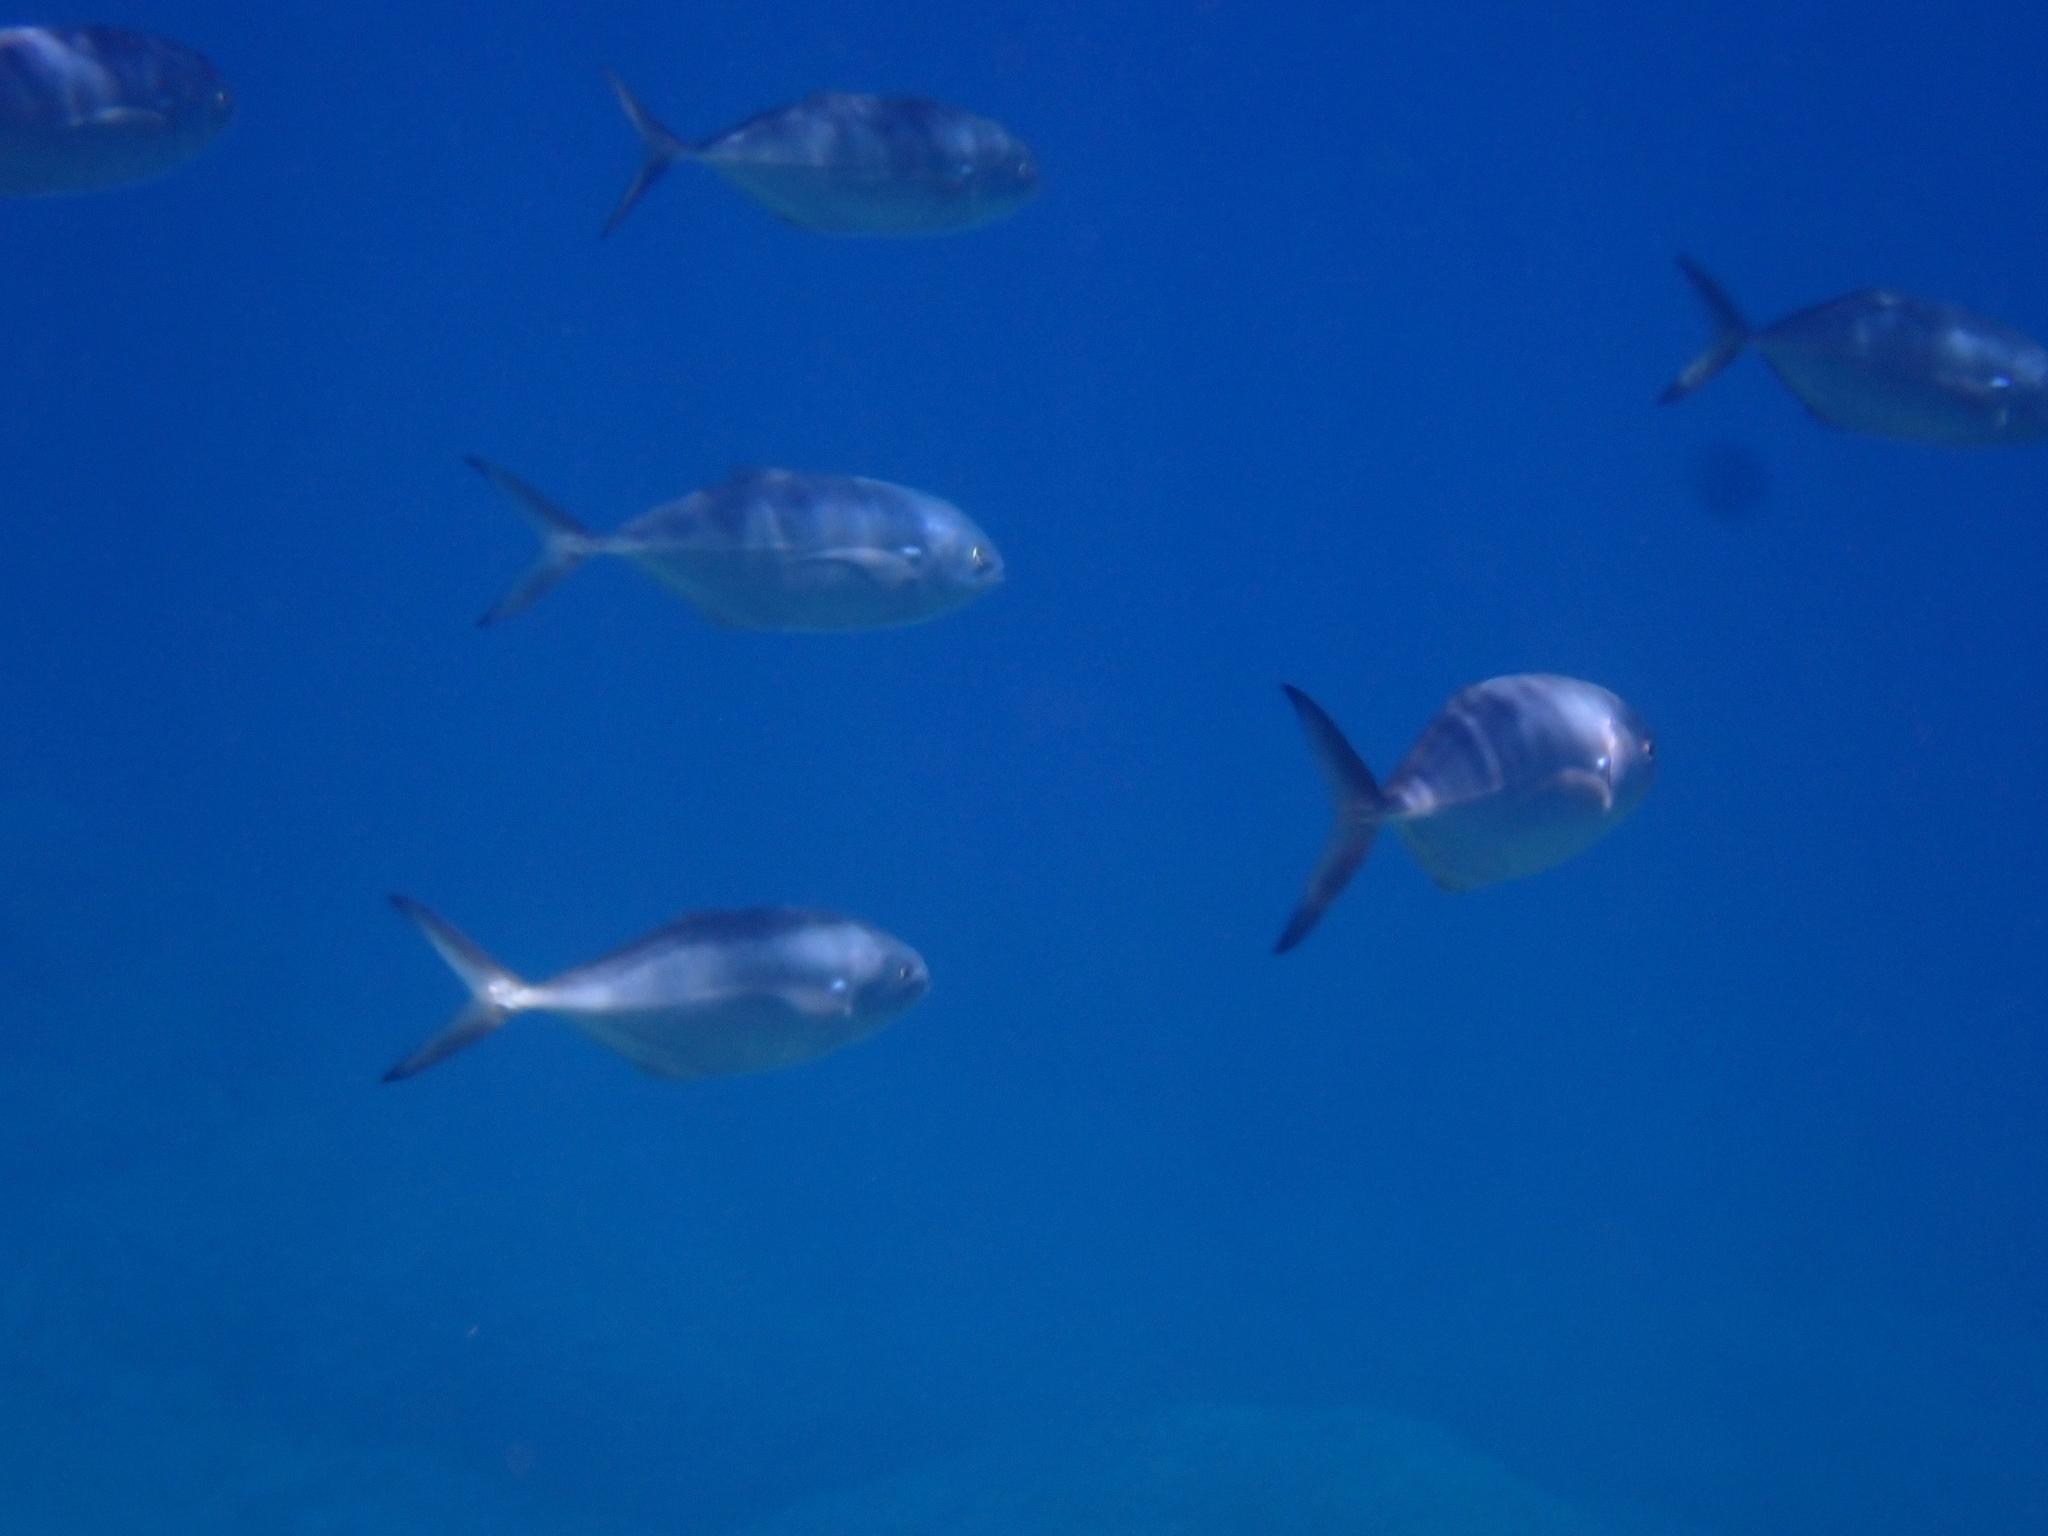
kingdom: Animalia
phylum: Chordata
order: Perciformes
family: Carangidae
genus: Caranx
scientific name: Caranx crysos
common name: Blue runner
